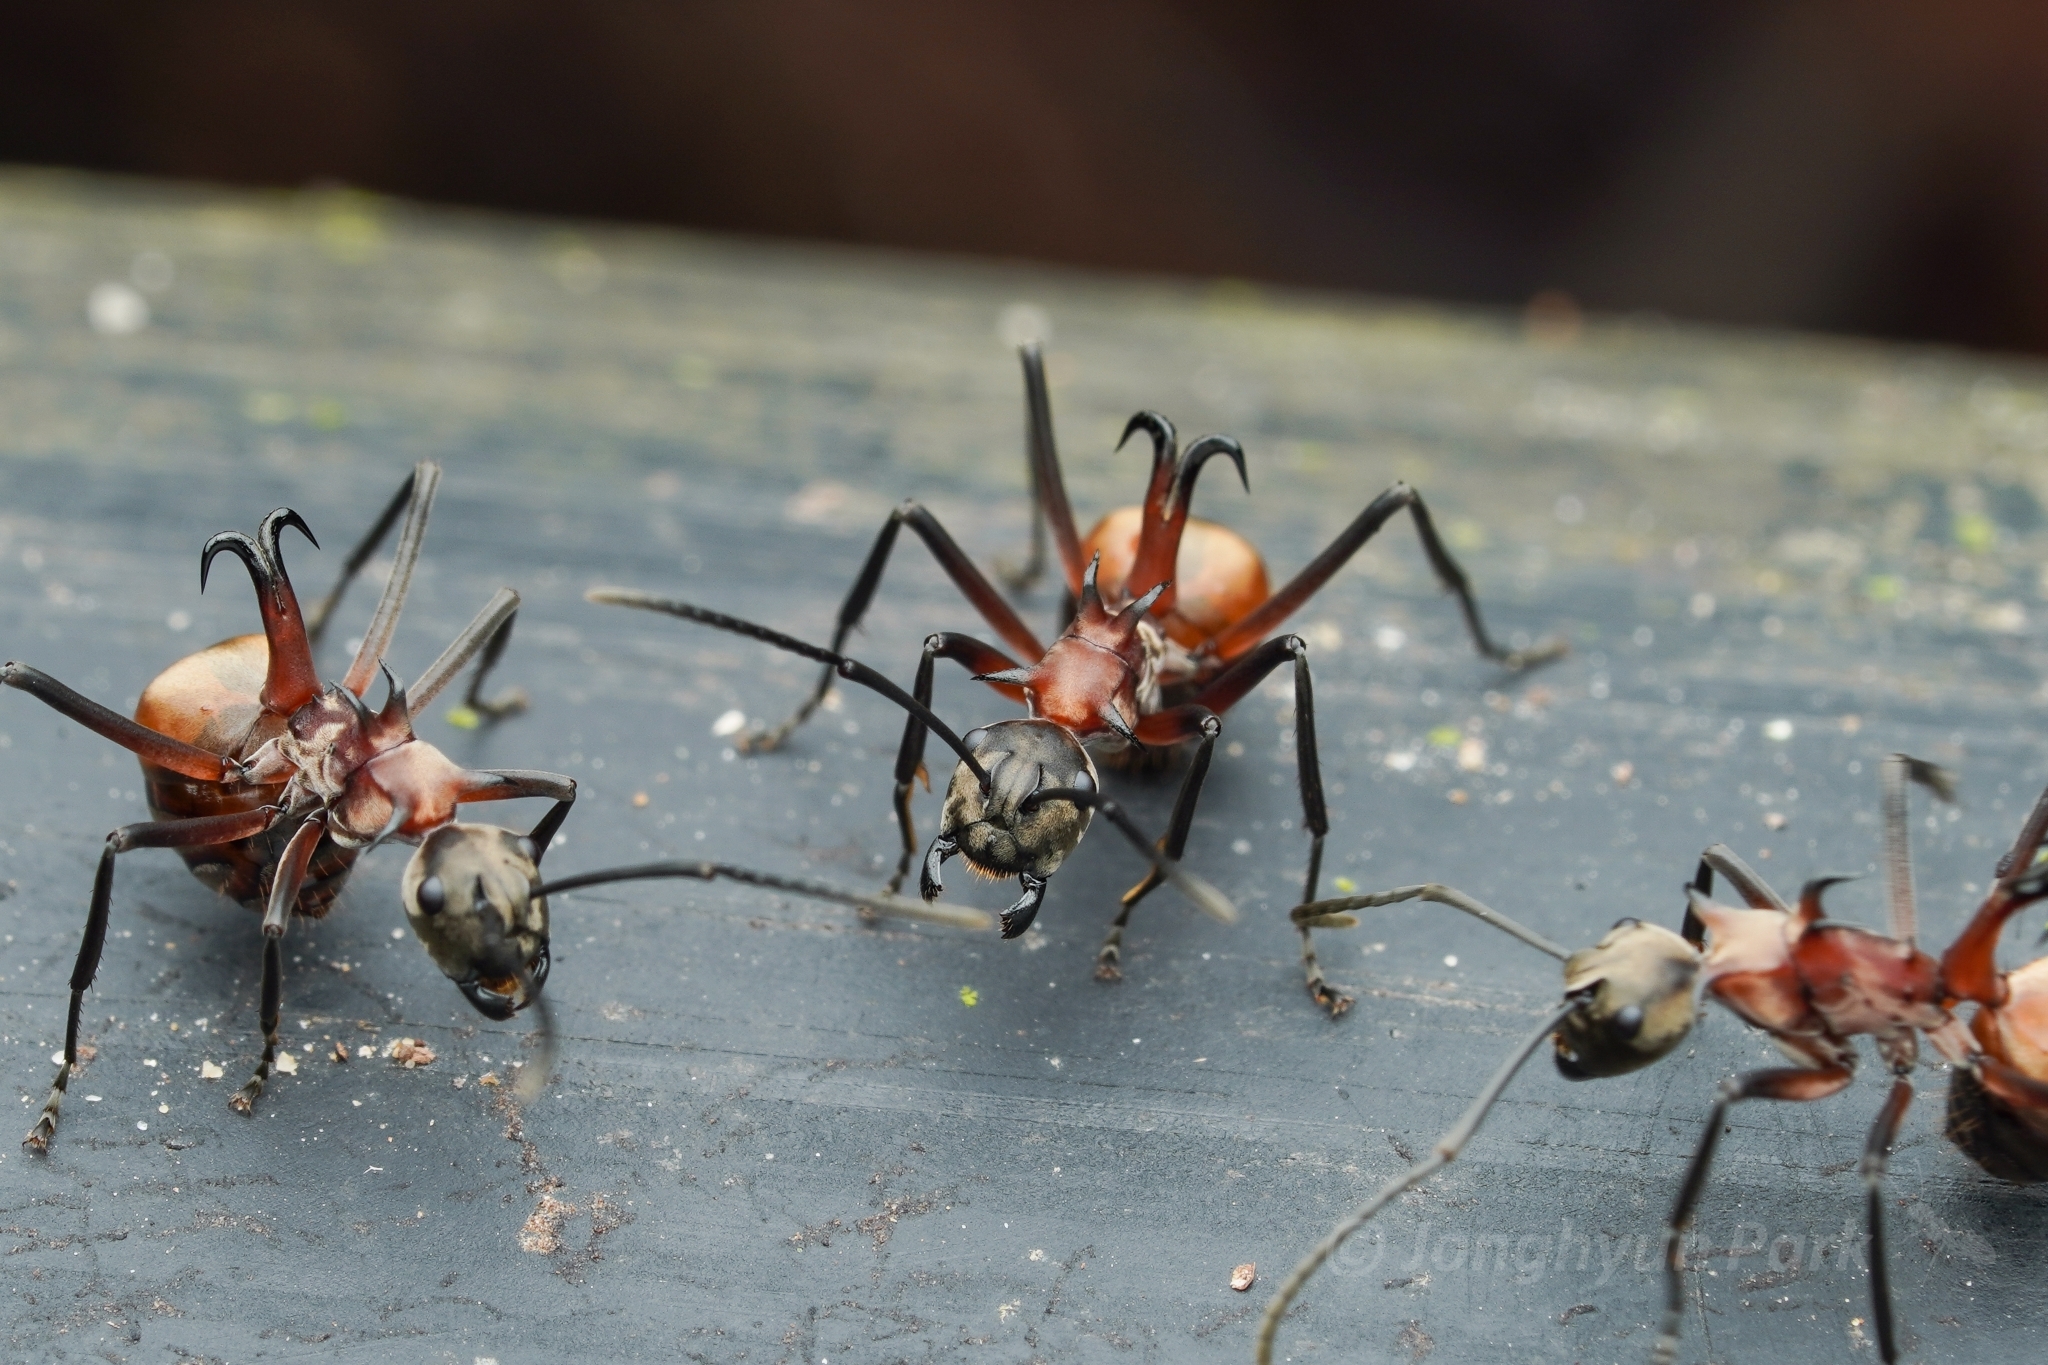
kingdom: Animalia
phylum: Arthropoda
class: Insecta
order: Hymenoptera
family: Formicidae
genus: Polyrhachis
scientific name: Polyrhachis olybria
